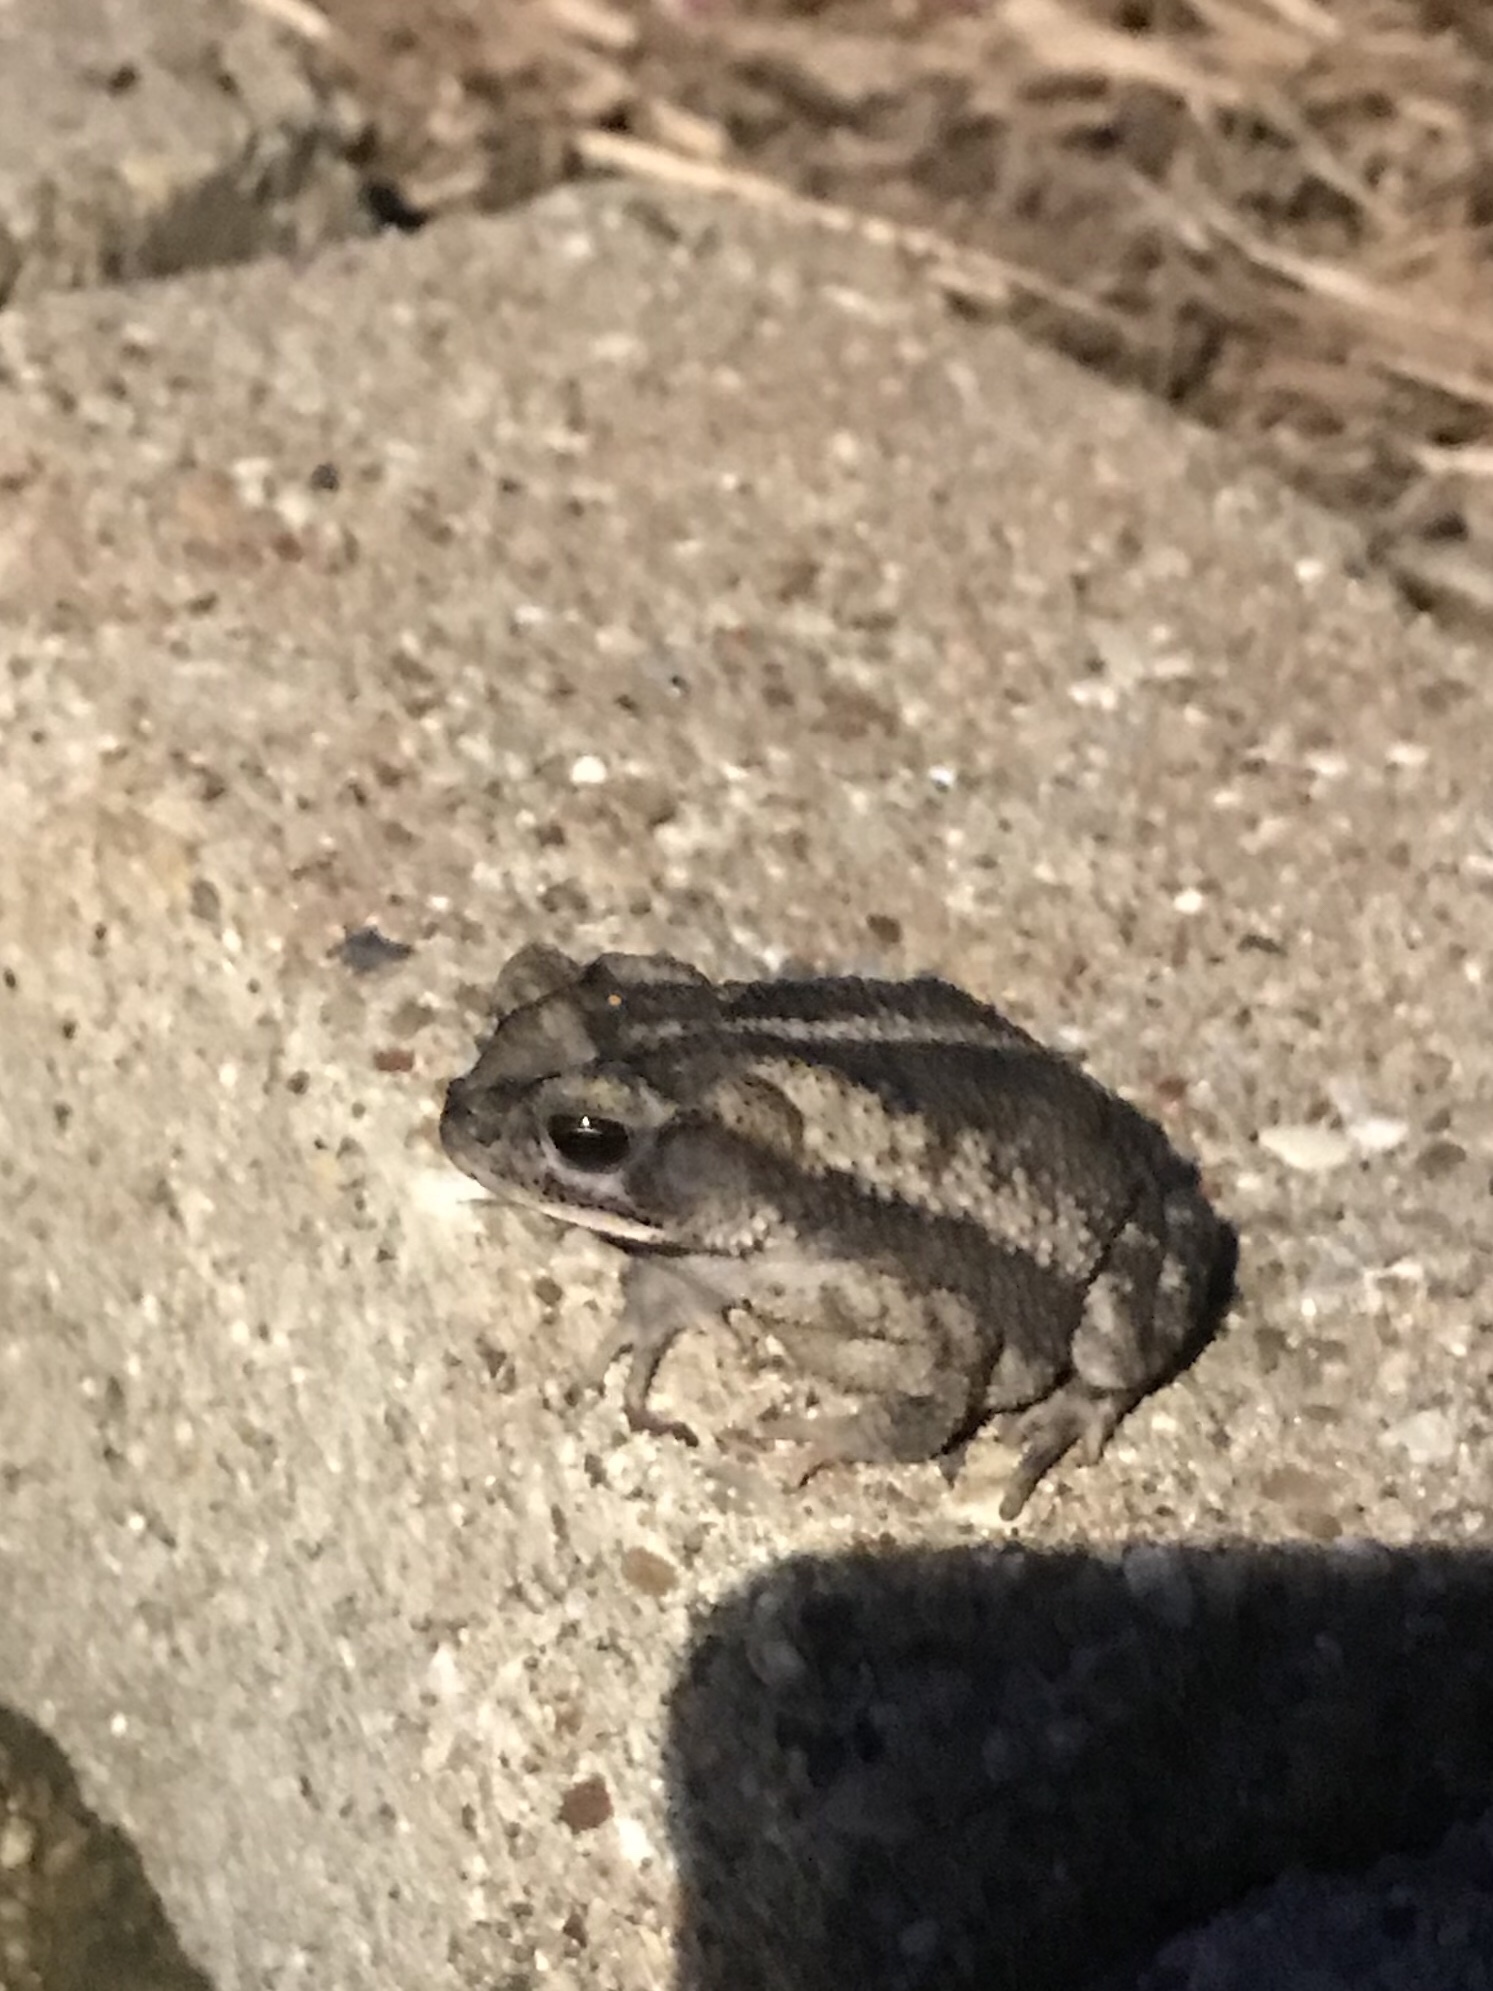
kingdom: Animalia
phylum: Chordata
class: Amphibia
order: Anura
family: Bufonidae
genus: Incilius
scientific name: Incilius nebulifer
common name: Gulf coast toad
